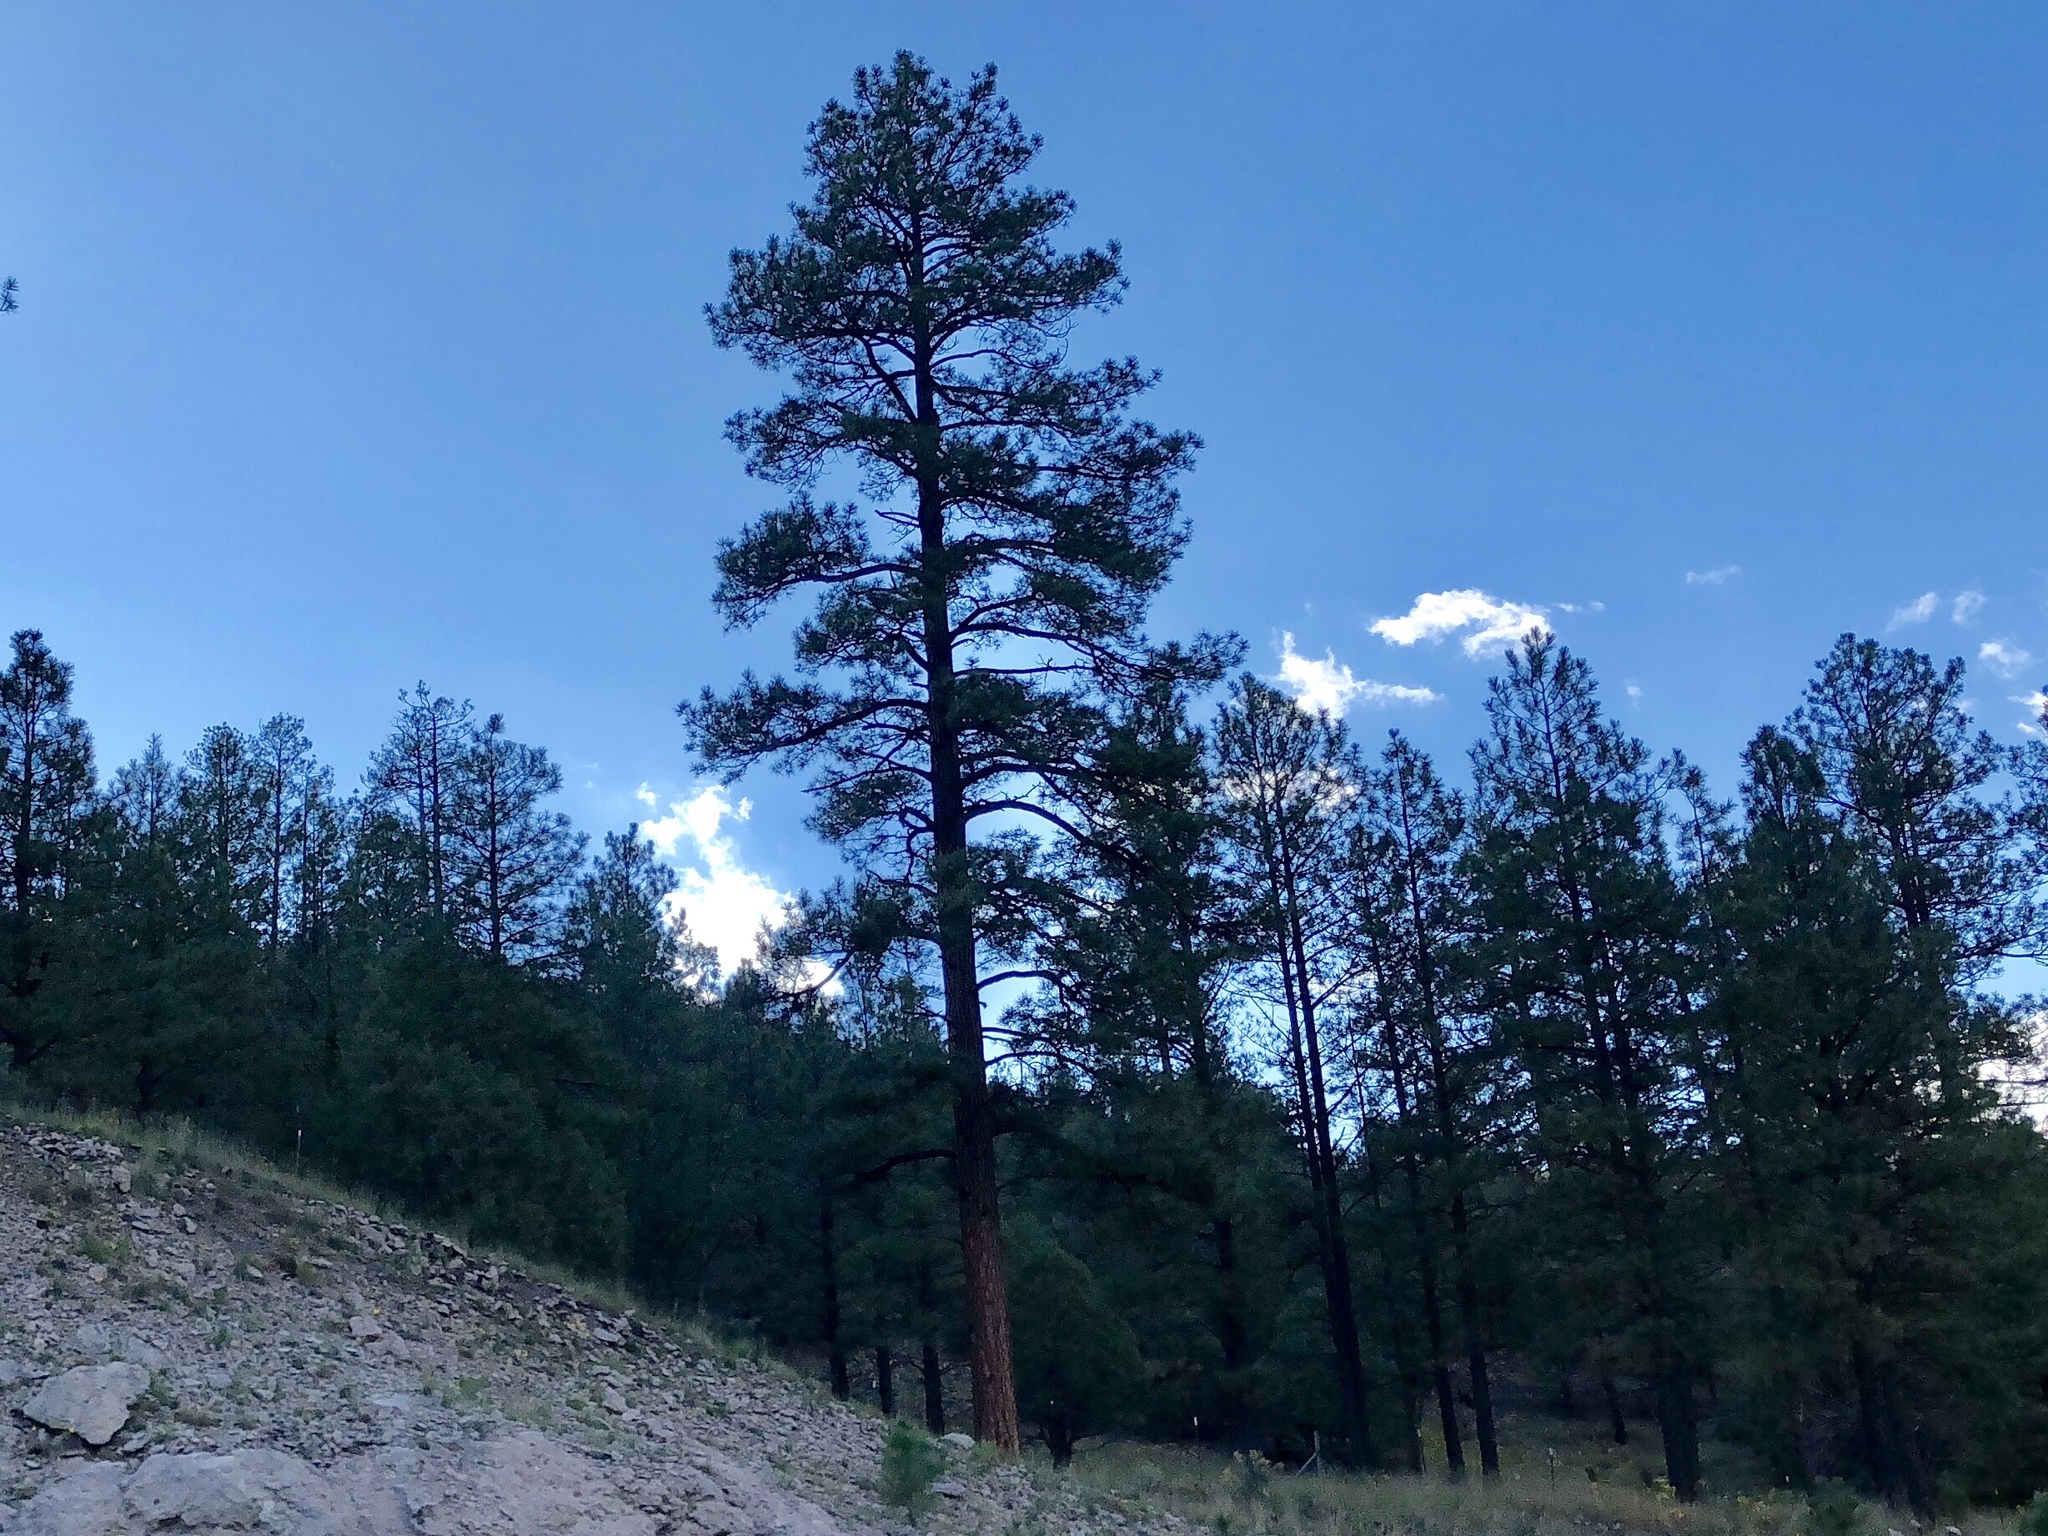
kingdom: Plantae
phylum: Tracheophyta
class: Pinopsida
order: Pinales
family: Pinaceae
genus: Pinus
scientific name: Pinus ponderosa
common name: Western yellow-pine
